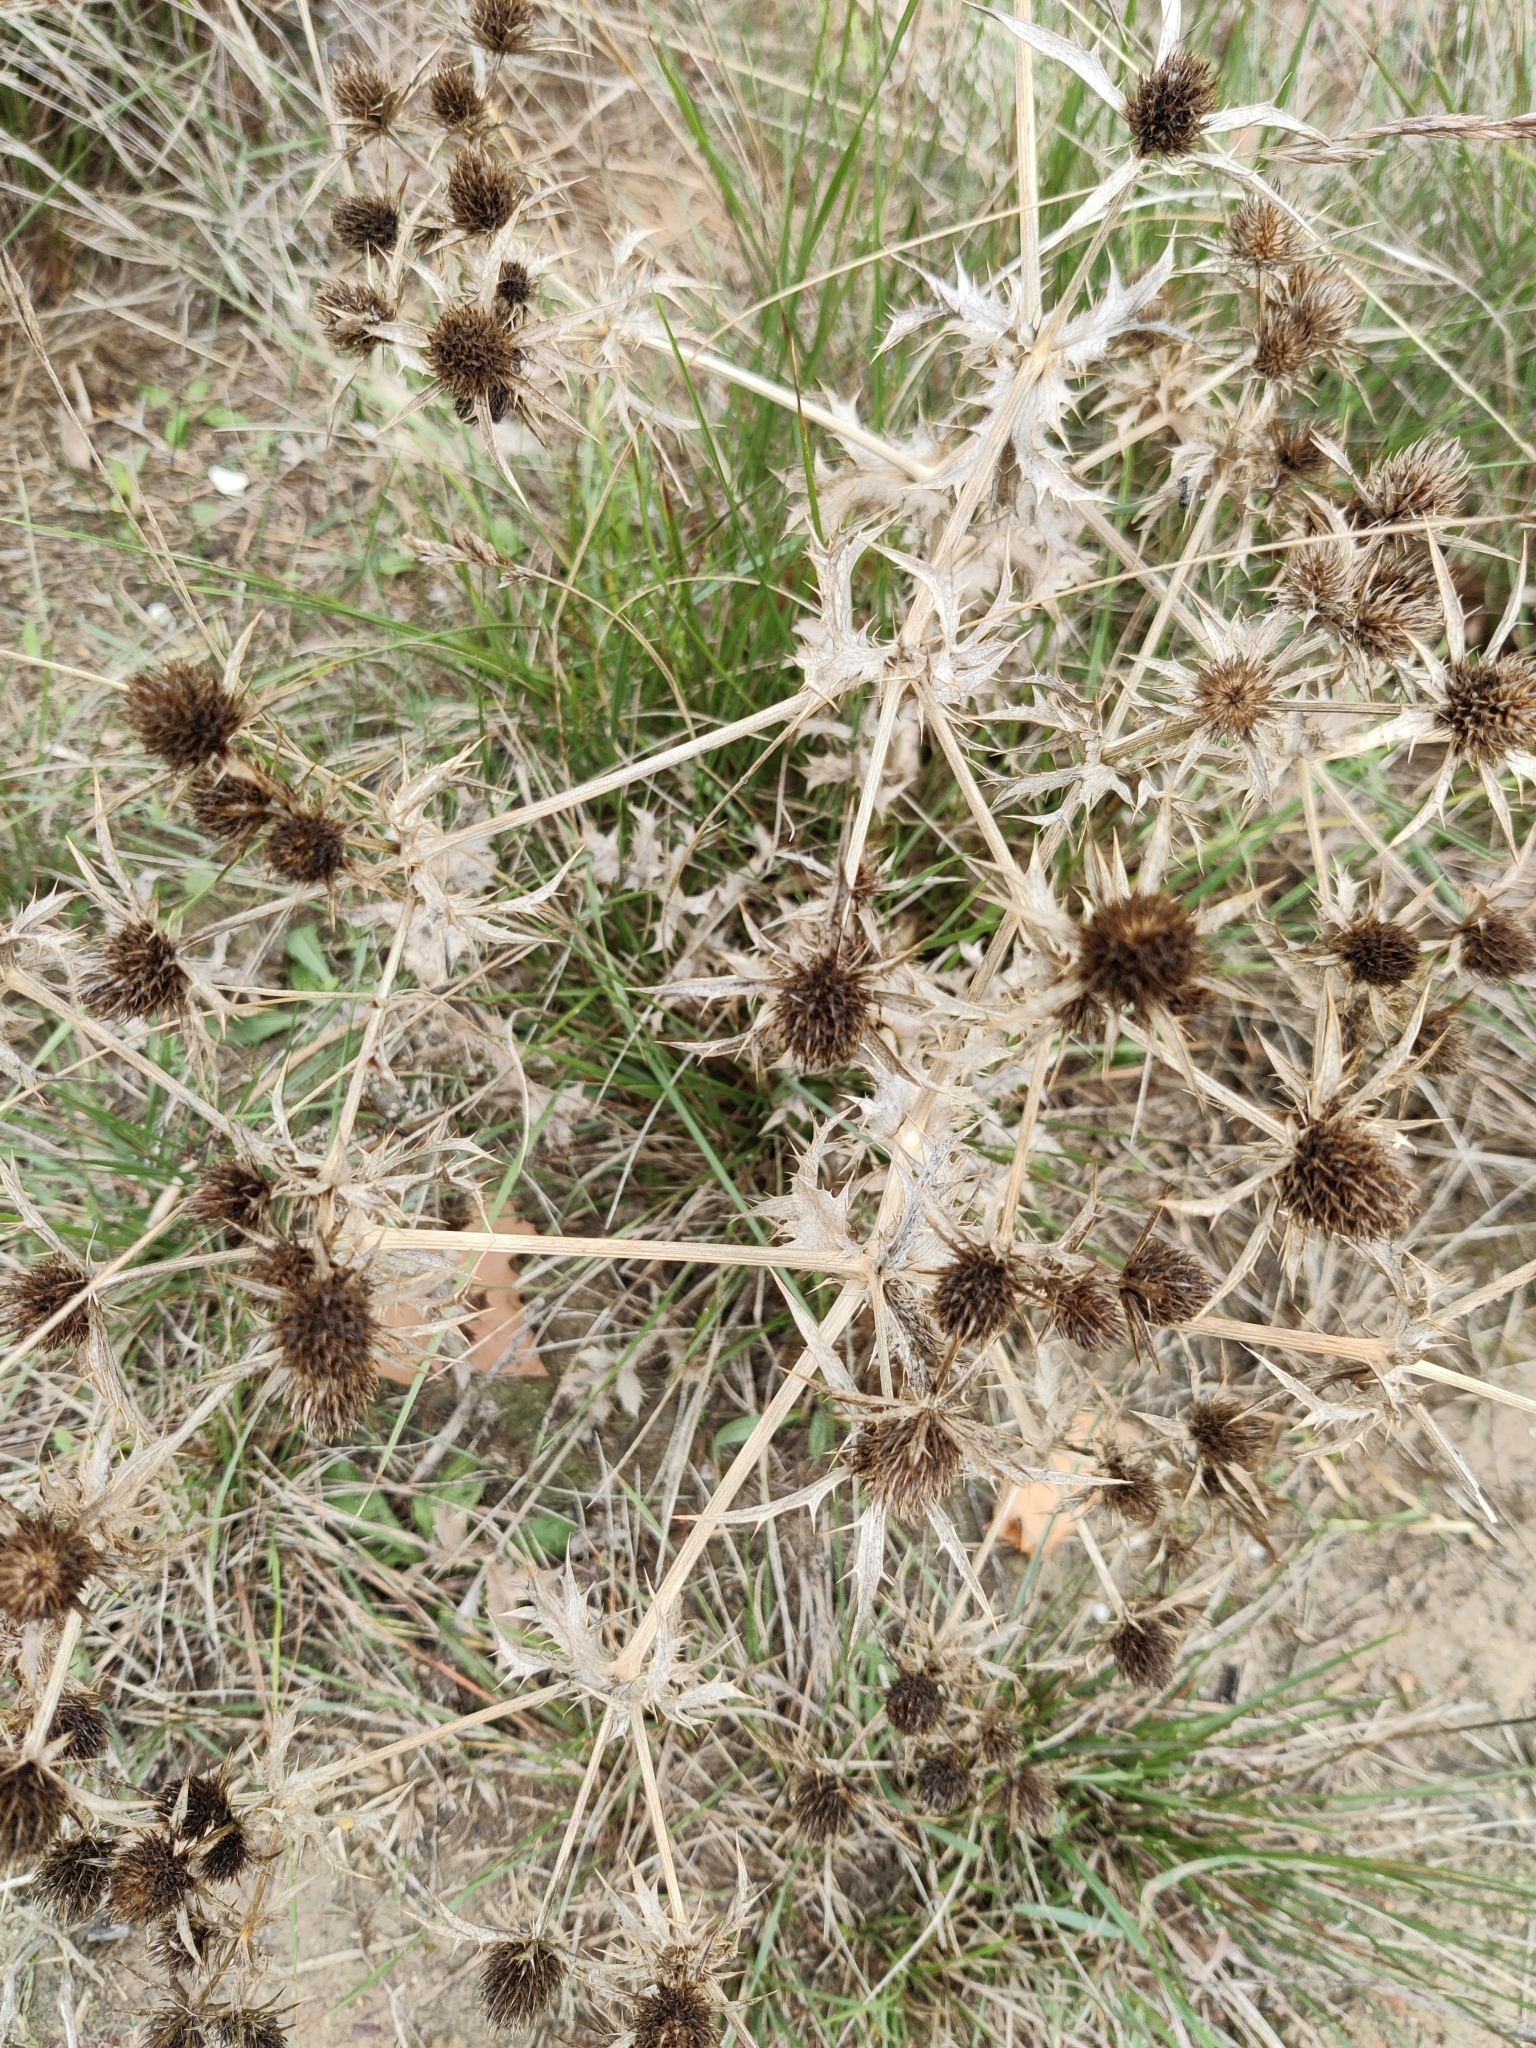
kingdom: Plantae
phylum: Tracheophyta
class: Magnoliopsida
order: Apiales
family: Apiaceae
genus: Eryngium
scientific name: Eryngium campestre
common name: Field eryngo
